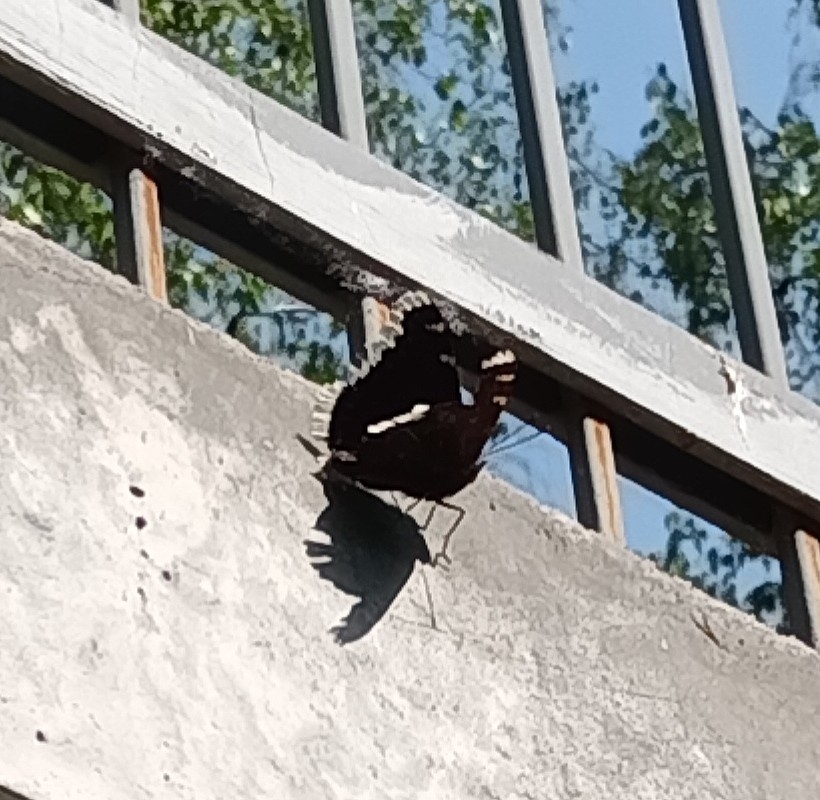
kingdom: Animalia
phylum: Arthropoda
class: Insecta
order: Lepidoptera
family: Nymphalidae
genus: Nymphalis
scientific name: Nymphalis antiopa
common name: Camberwell beauty
